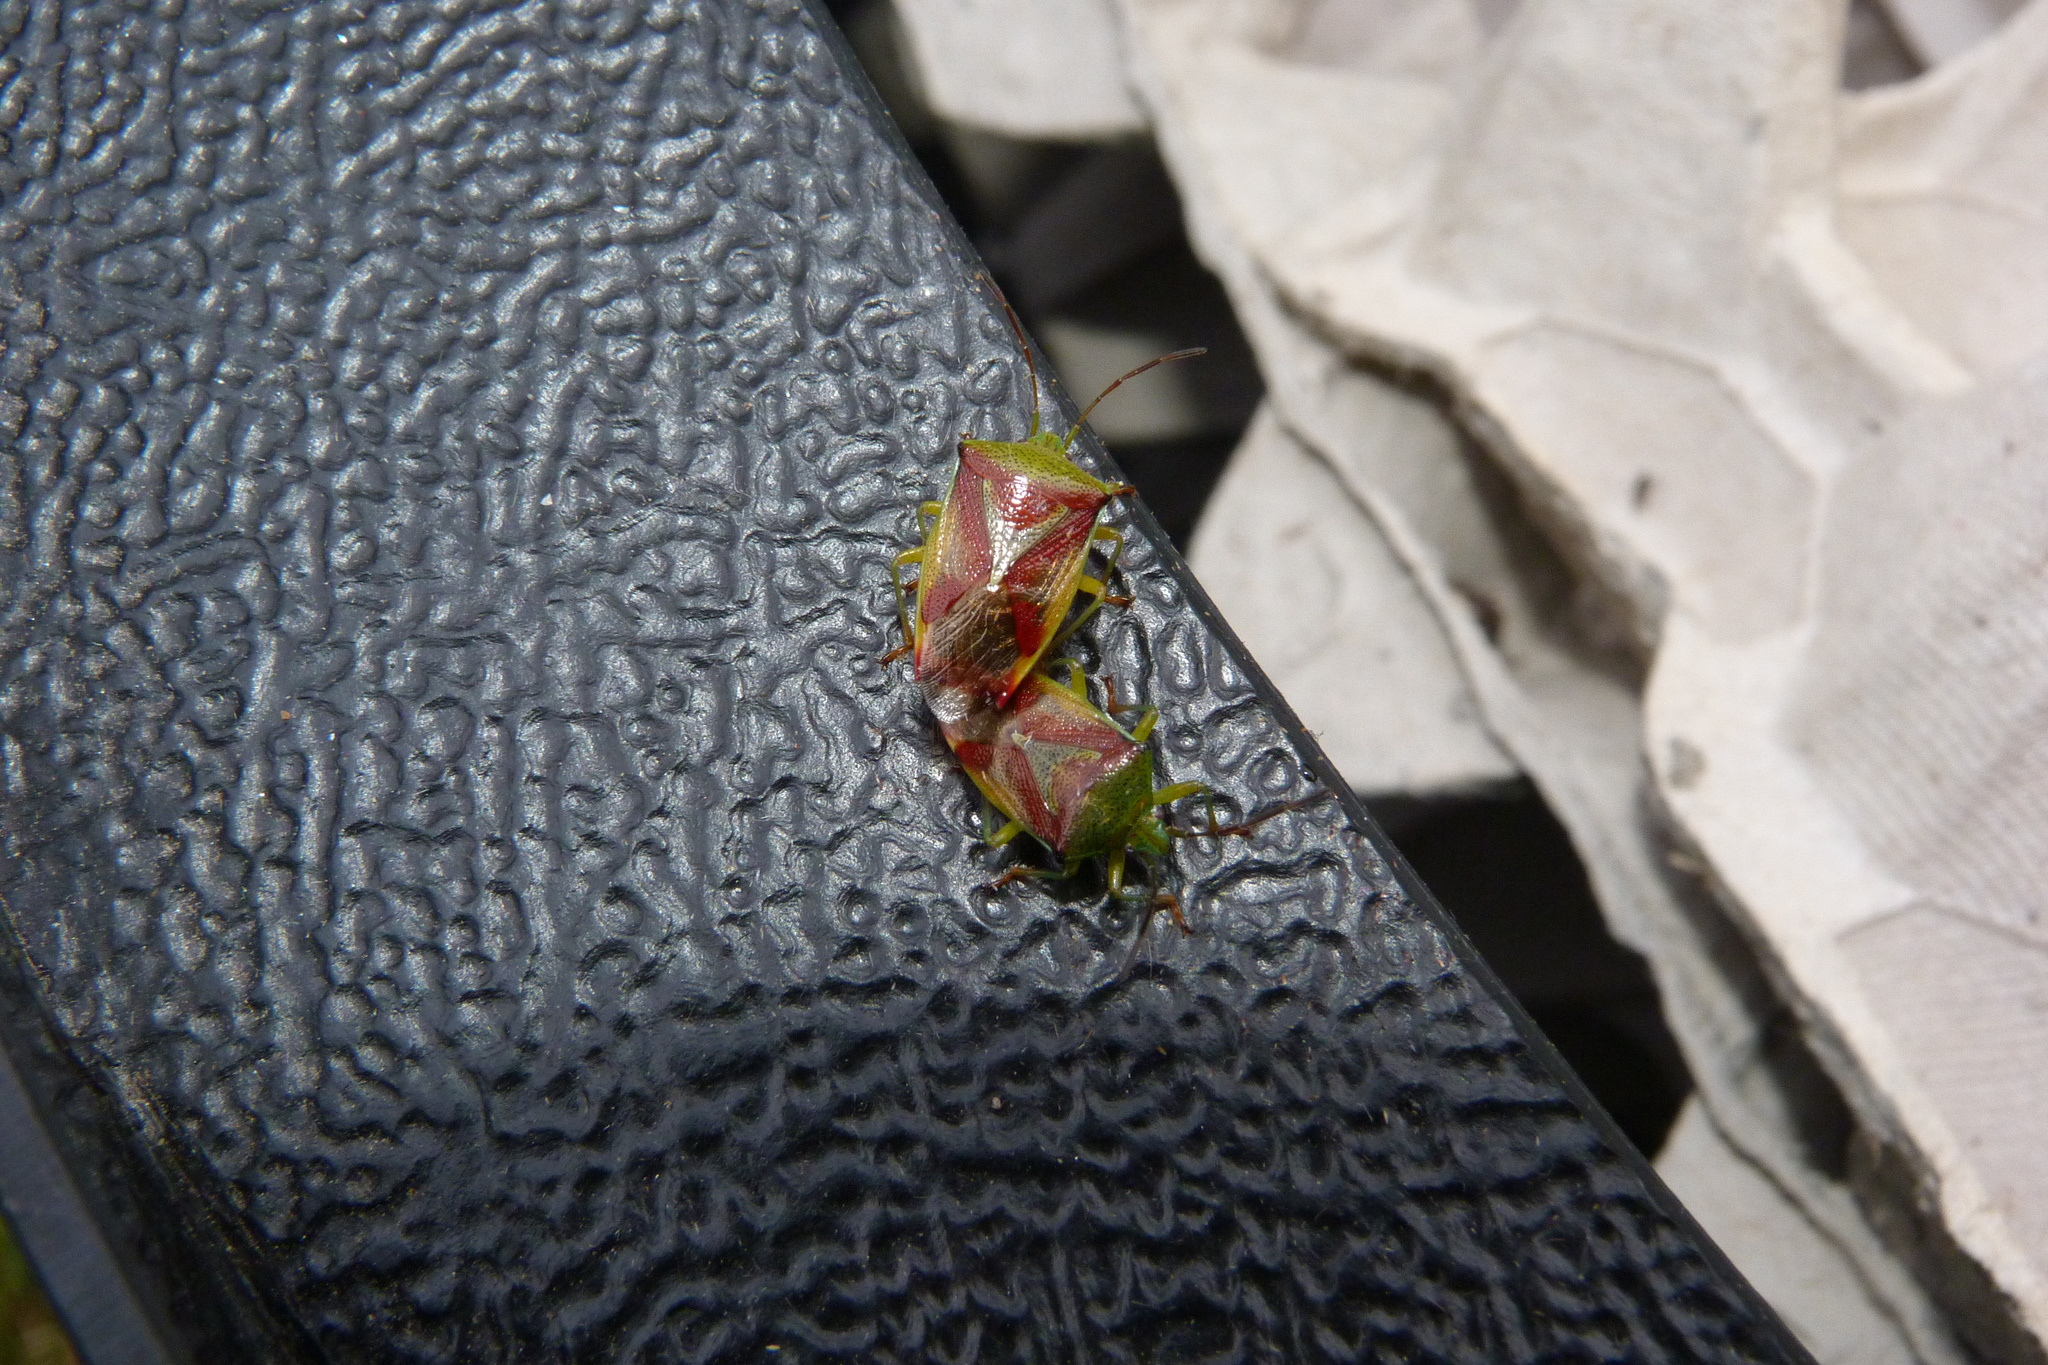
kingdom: Animalia
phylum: Arthropoda
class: Insecta
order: Hemiptera
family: Acanthosomatidae
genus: Elasmostethus
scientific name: Elasmostethus interstinctus
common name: Birch shieldbug
